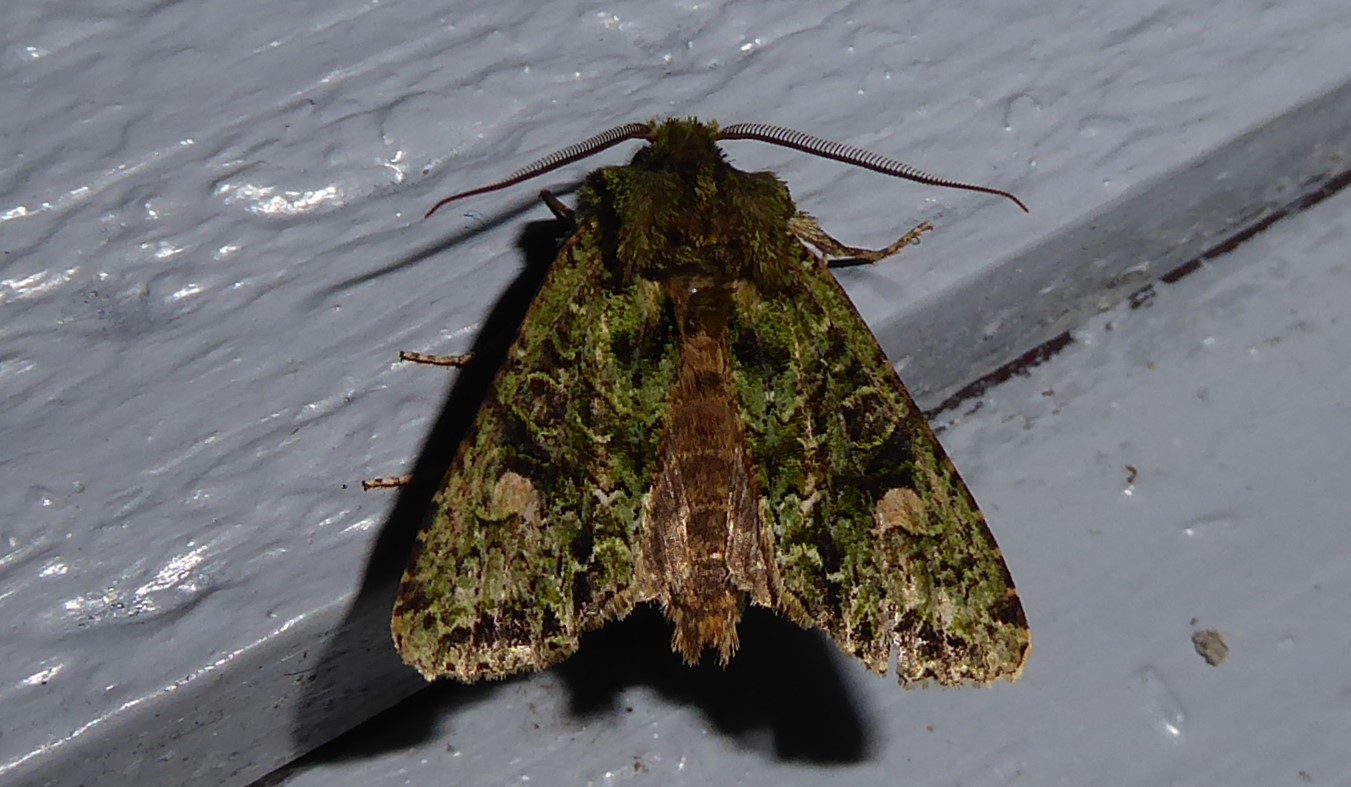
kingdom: Animalia
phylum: Arthropoda
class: Insecta
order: Lepidoptera
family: Noctuidae
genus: Ichneutica
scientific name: Ichneutica
